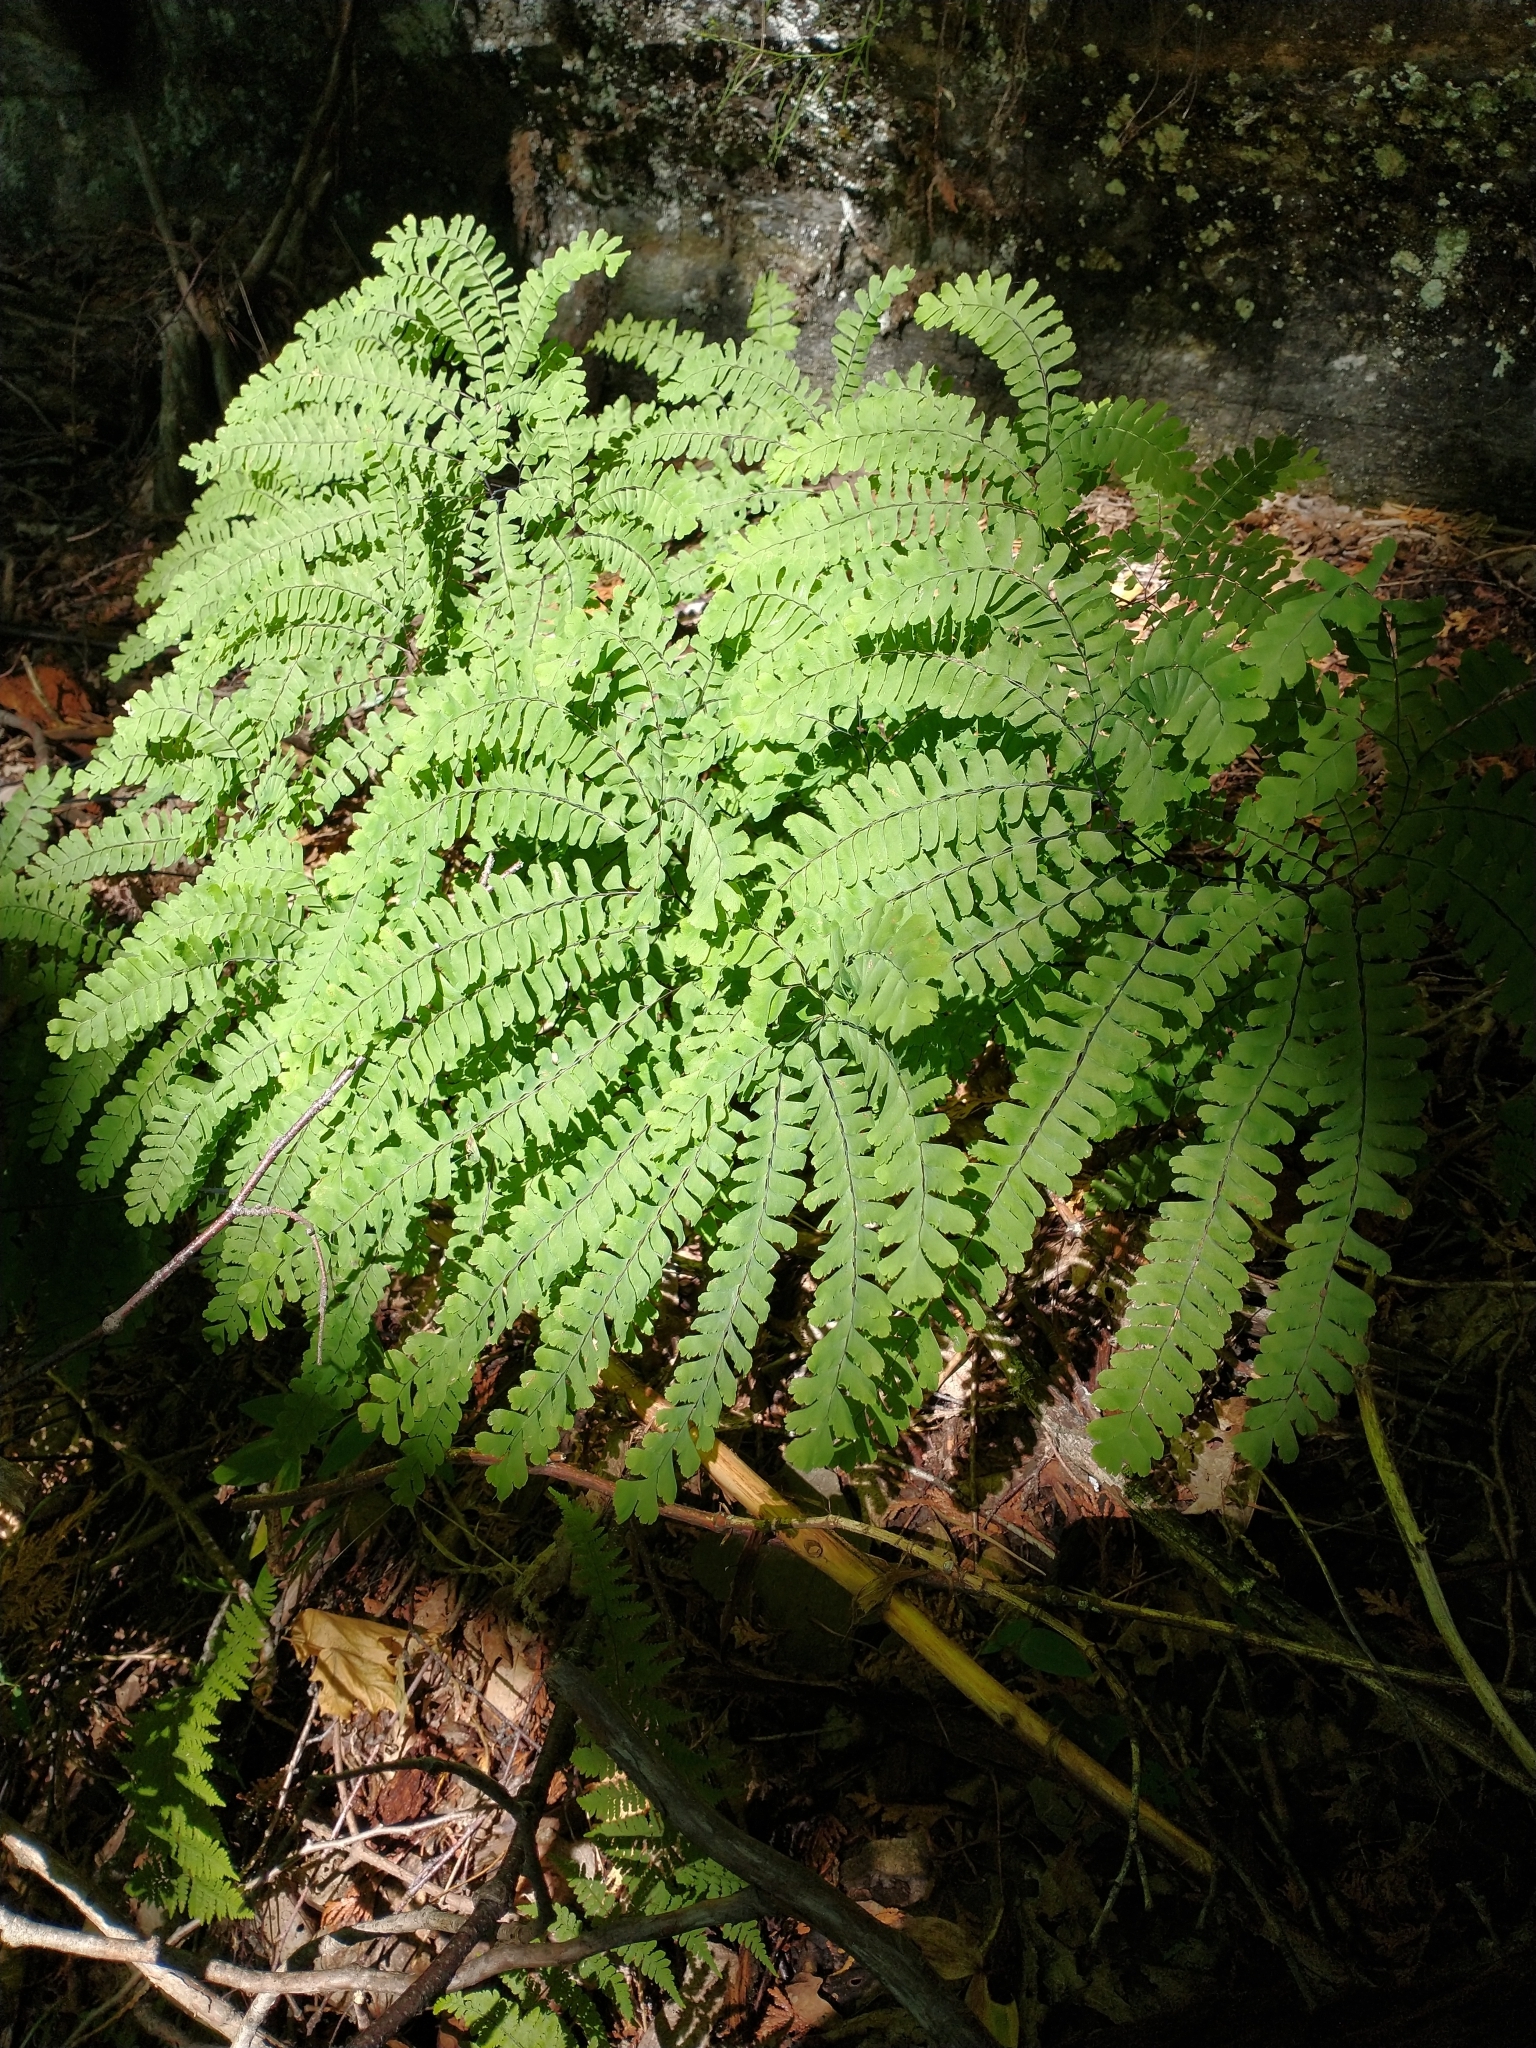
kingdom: Plantae
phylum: Tracheophyta
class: Polypodiopsida
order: Polypodiales
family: Pteridaceae
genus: Adiantum
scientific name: Adiantum pedatum
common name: Five-finger fern
